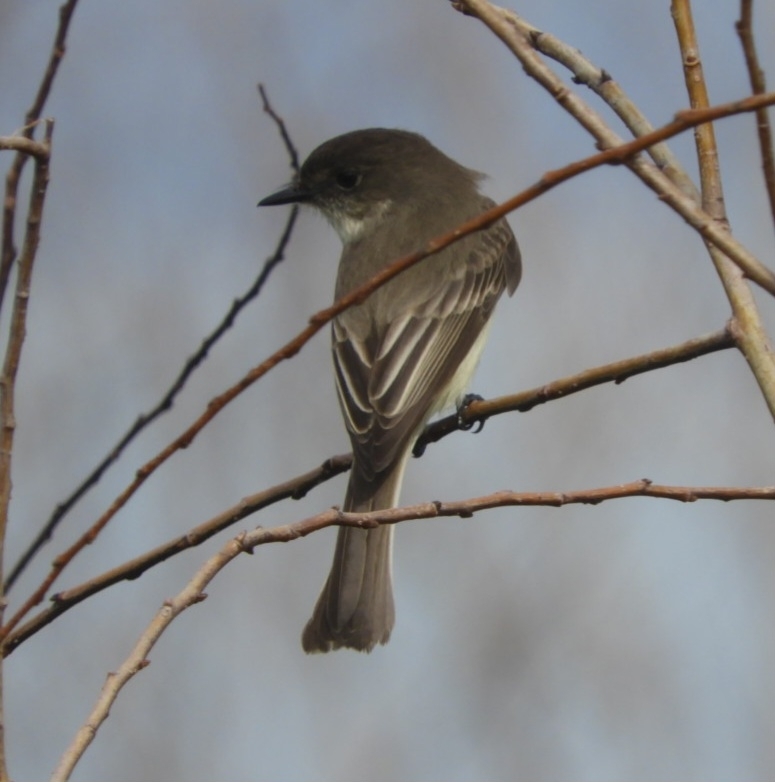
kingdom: Animalia
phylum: Chordata
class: Aves
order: Passeriformes
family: Tyrannidae
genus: Sayornis
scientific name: Sayornis phoebe
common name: Eastern phoebe
